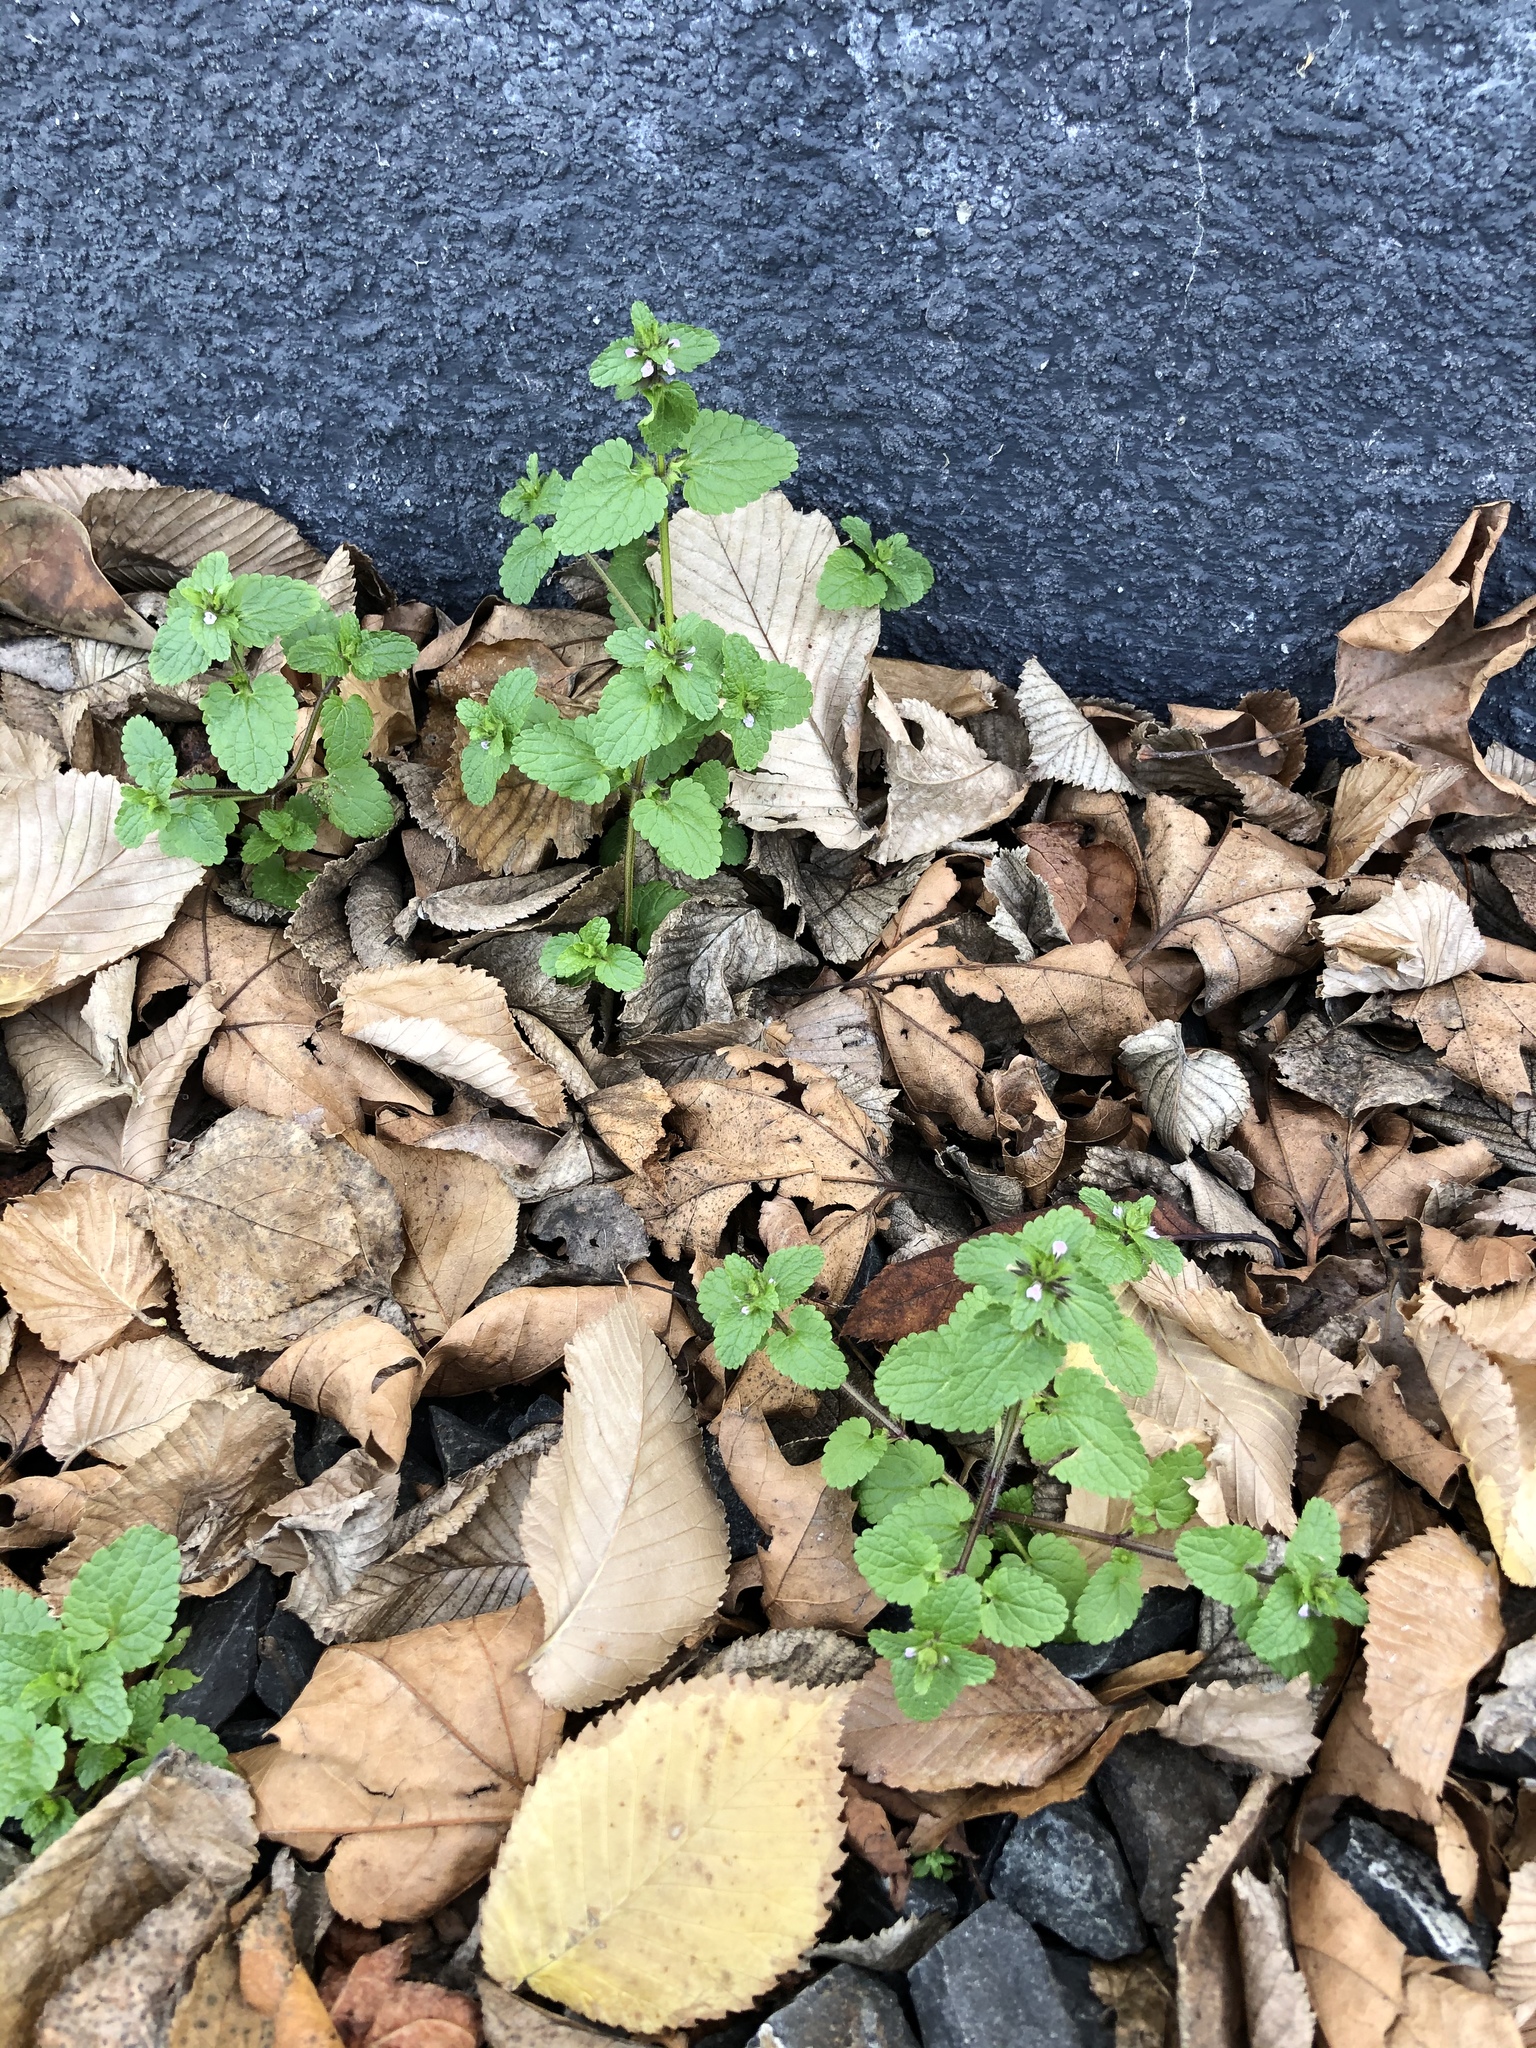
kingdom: Plantae
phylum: Tracheophyta
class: Magnoliopsida
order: Lamiales
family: Lamiaceae
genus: Stachys
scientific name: Stachys arvensis
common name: Field woundwort
